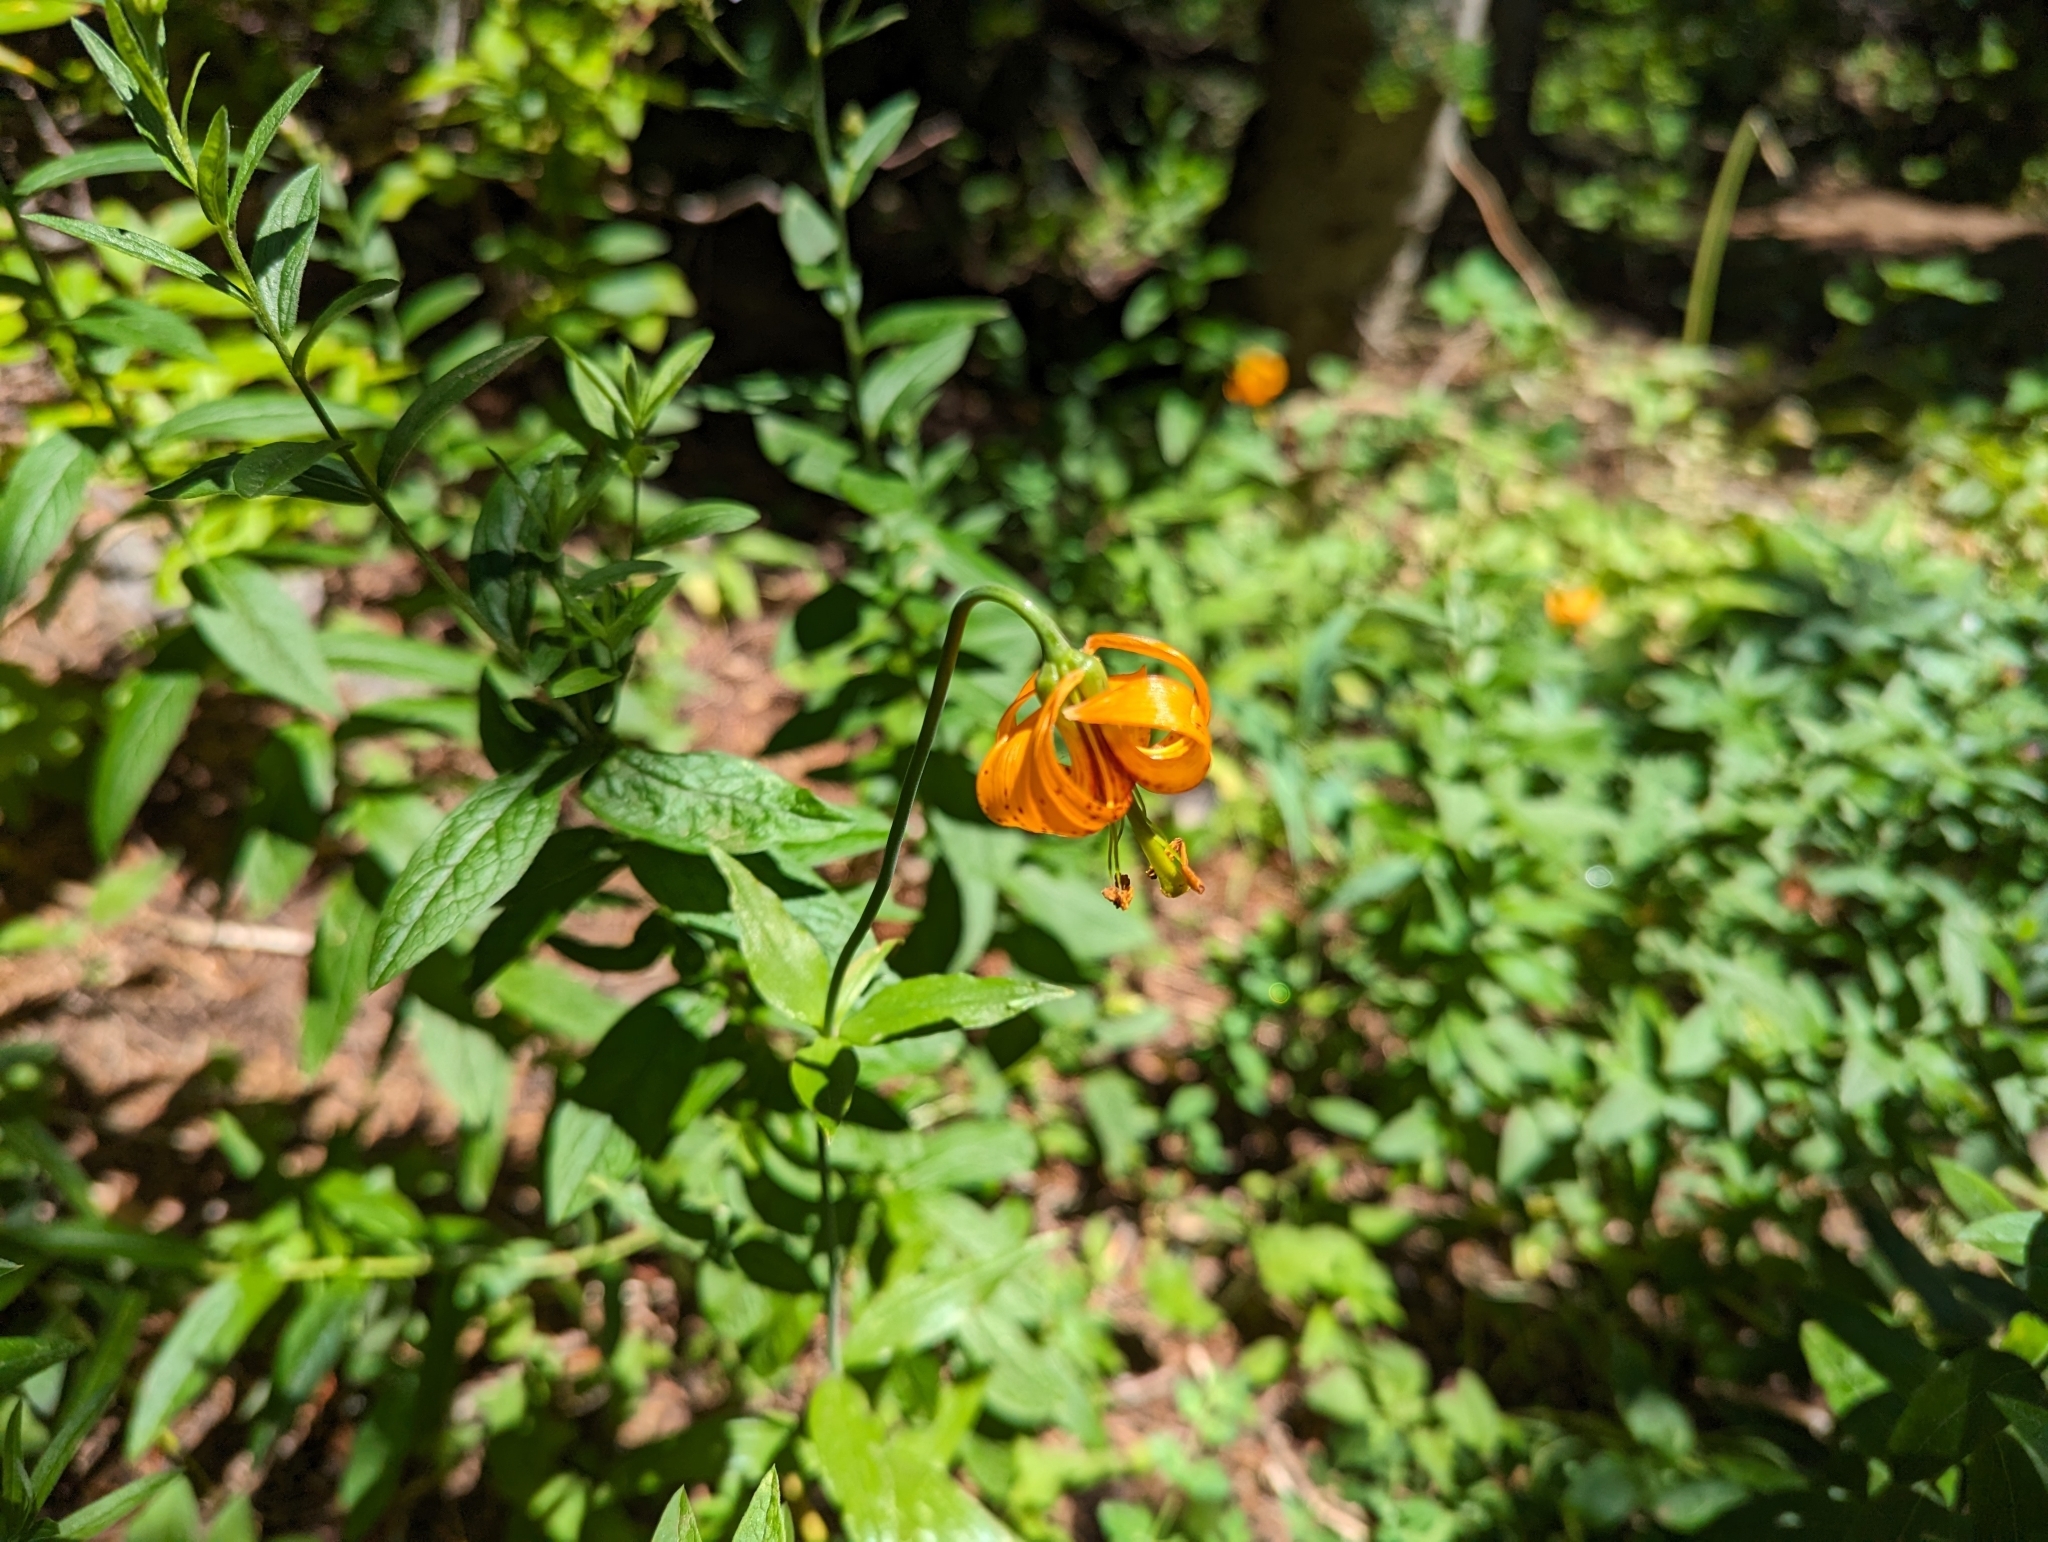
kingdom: Plantae
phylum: Tracheophyta
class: Liliopsida
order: Liliales
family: Liliaceae
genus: Lilium
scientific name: Lilium columbianum
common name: Columbia lily
